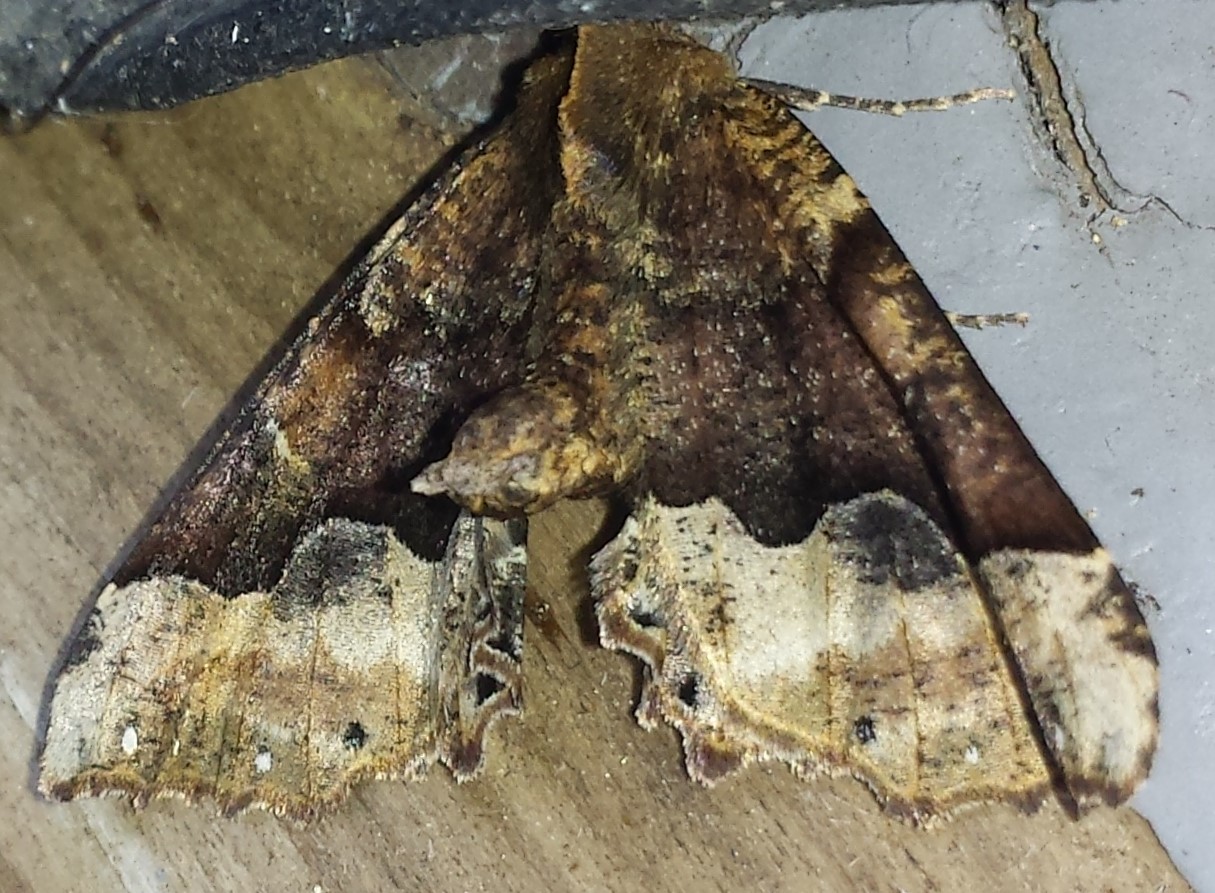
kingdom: Animalia
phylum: Arthropoda
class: Insecta
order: Lepidoptera
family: Geometridae
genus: Pero
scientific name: Pero morrisonaria
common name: Morrison's pero
